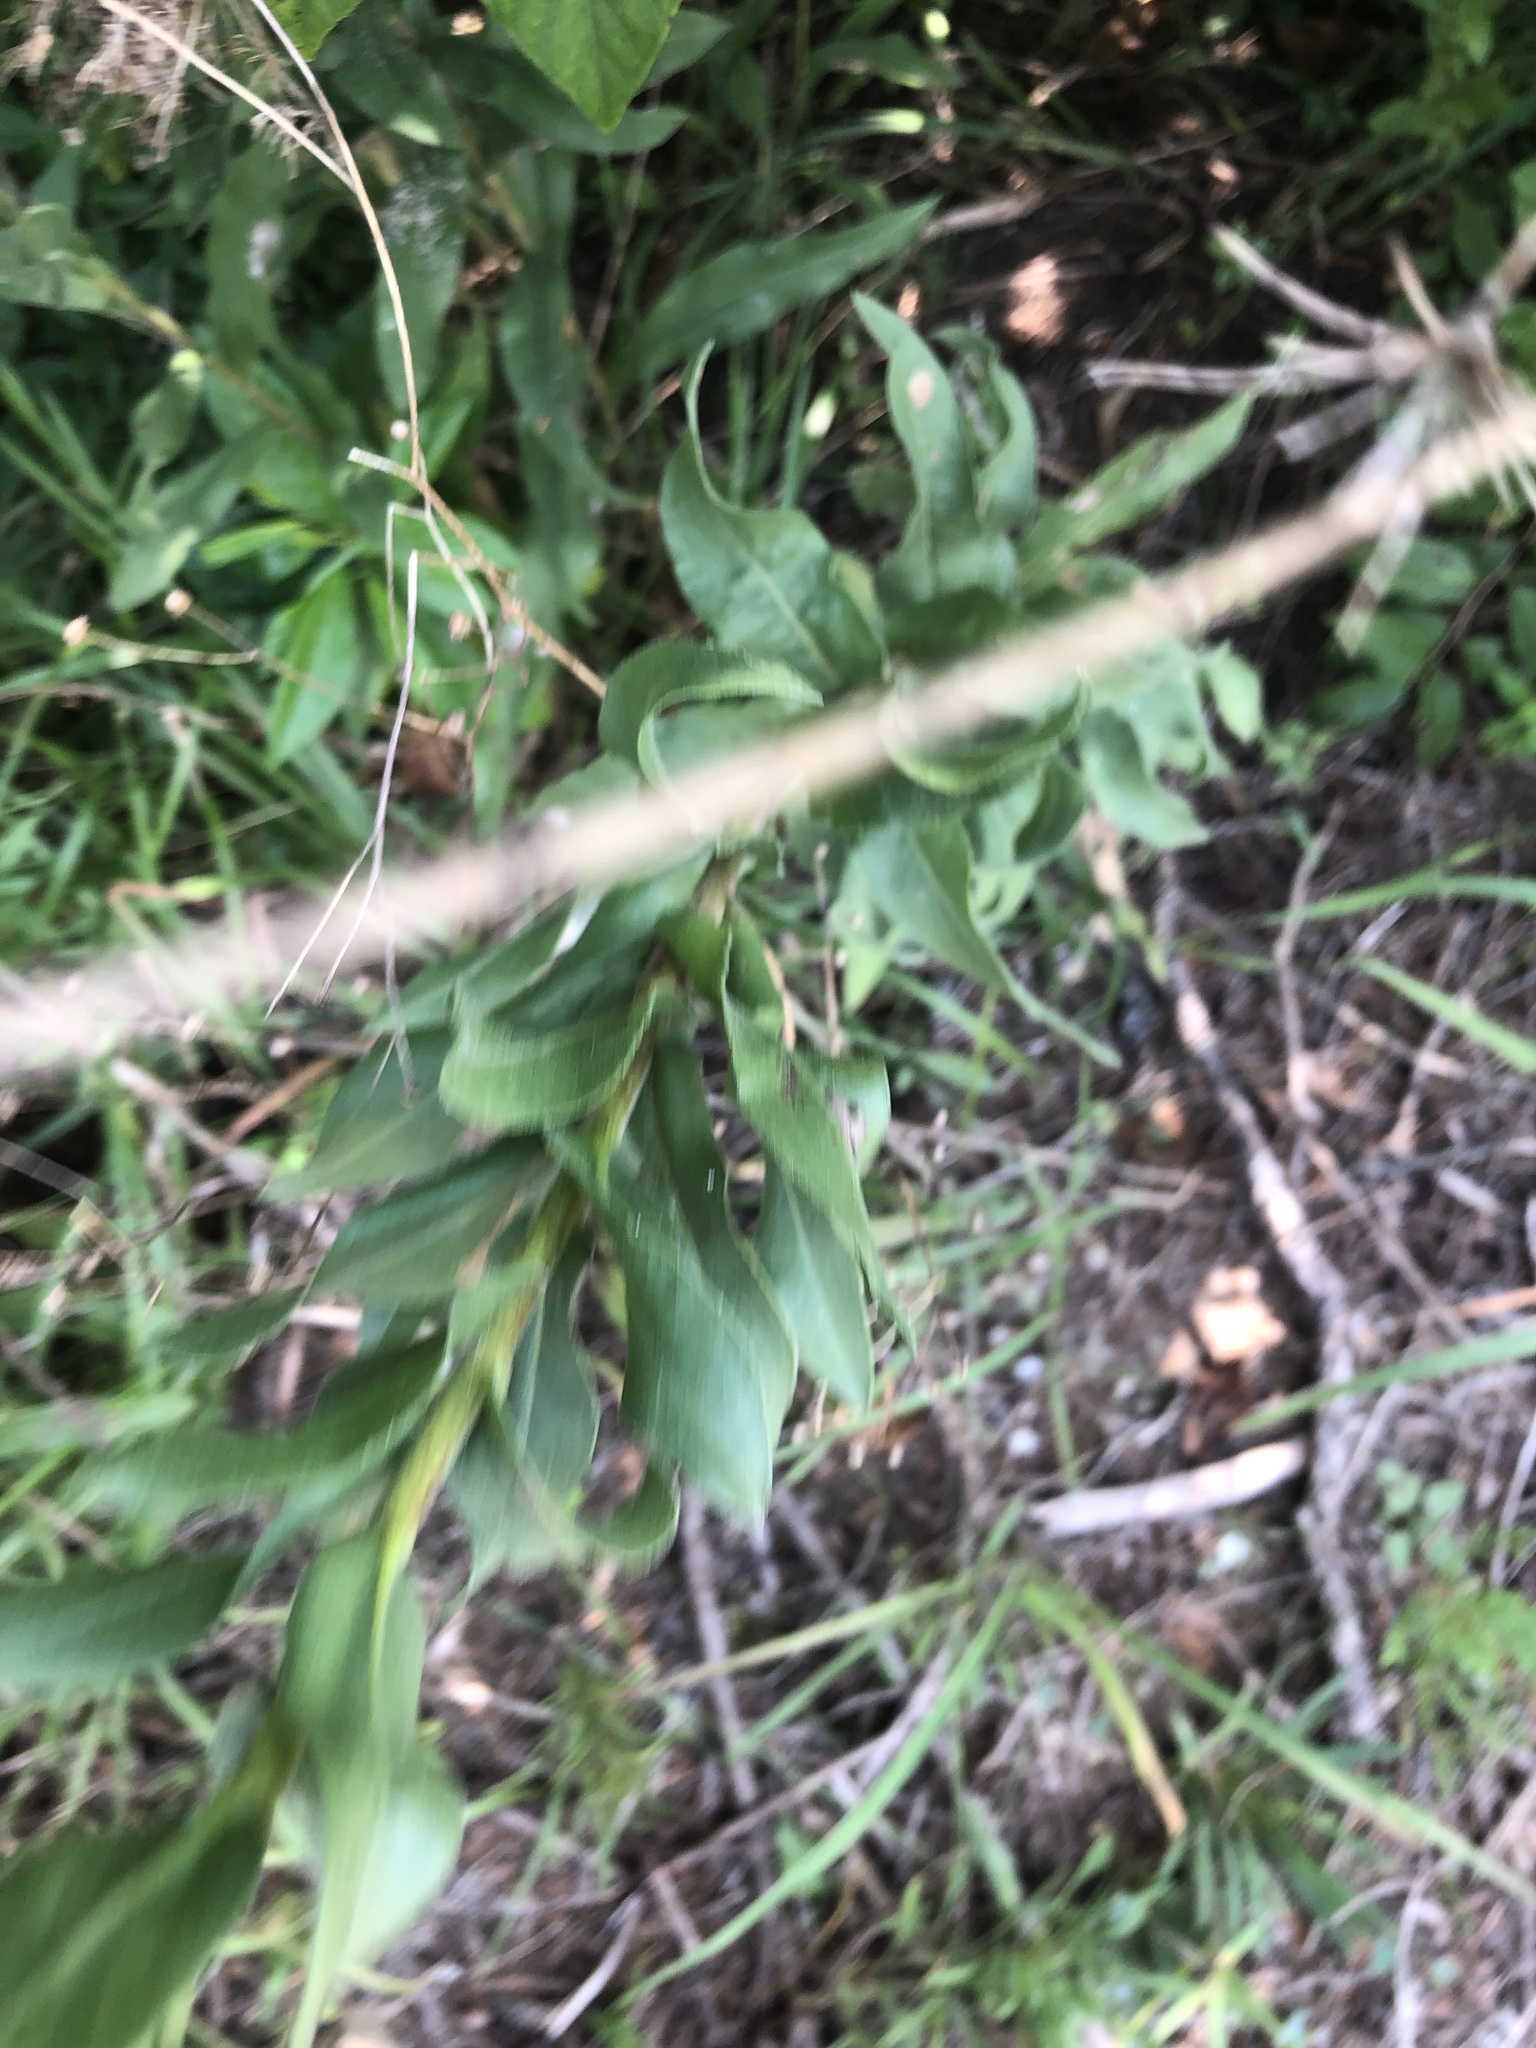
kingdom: Plantae
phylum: Tracheophyta
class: Magnoliopsida
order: Asterales
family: Asteraceae
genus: Solidago
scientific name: Solidago rigida
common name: Rigid goldenrod
